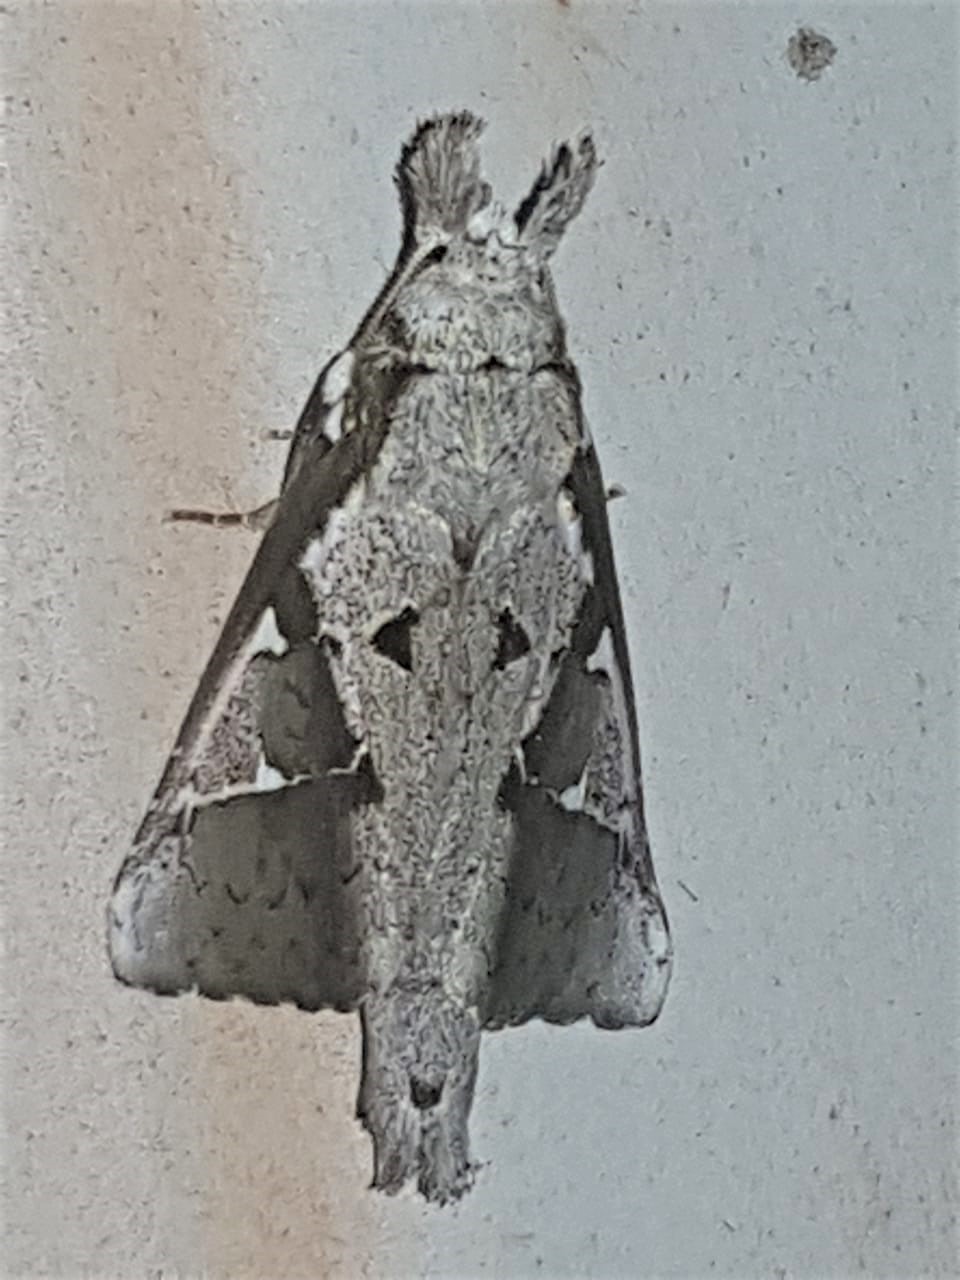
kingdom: Animalia
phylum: Arthropoda
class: Insecta
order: Lepidoptera
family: Notodontidae
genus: Lemairegisa
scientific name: Lemairegisa Lepasta maltha
